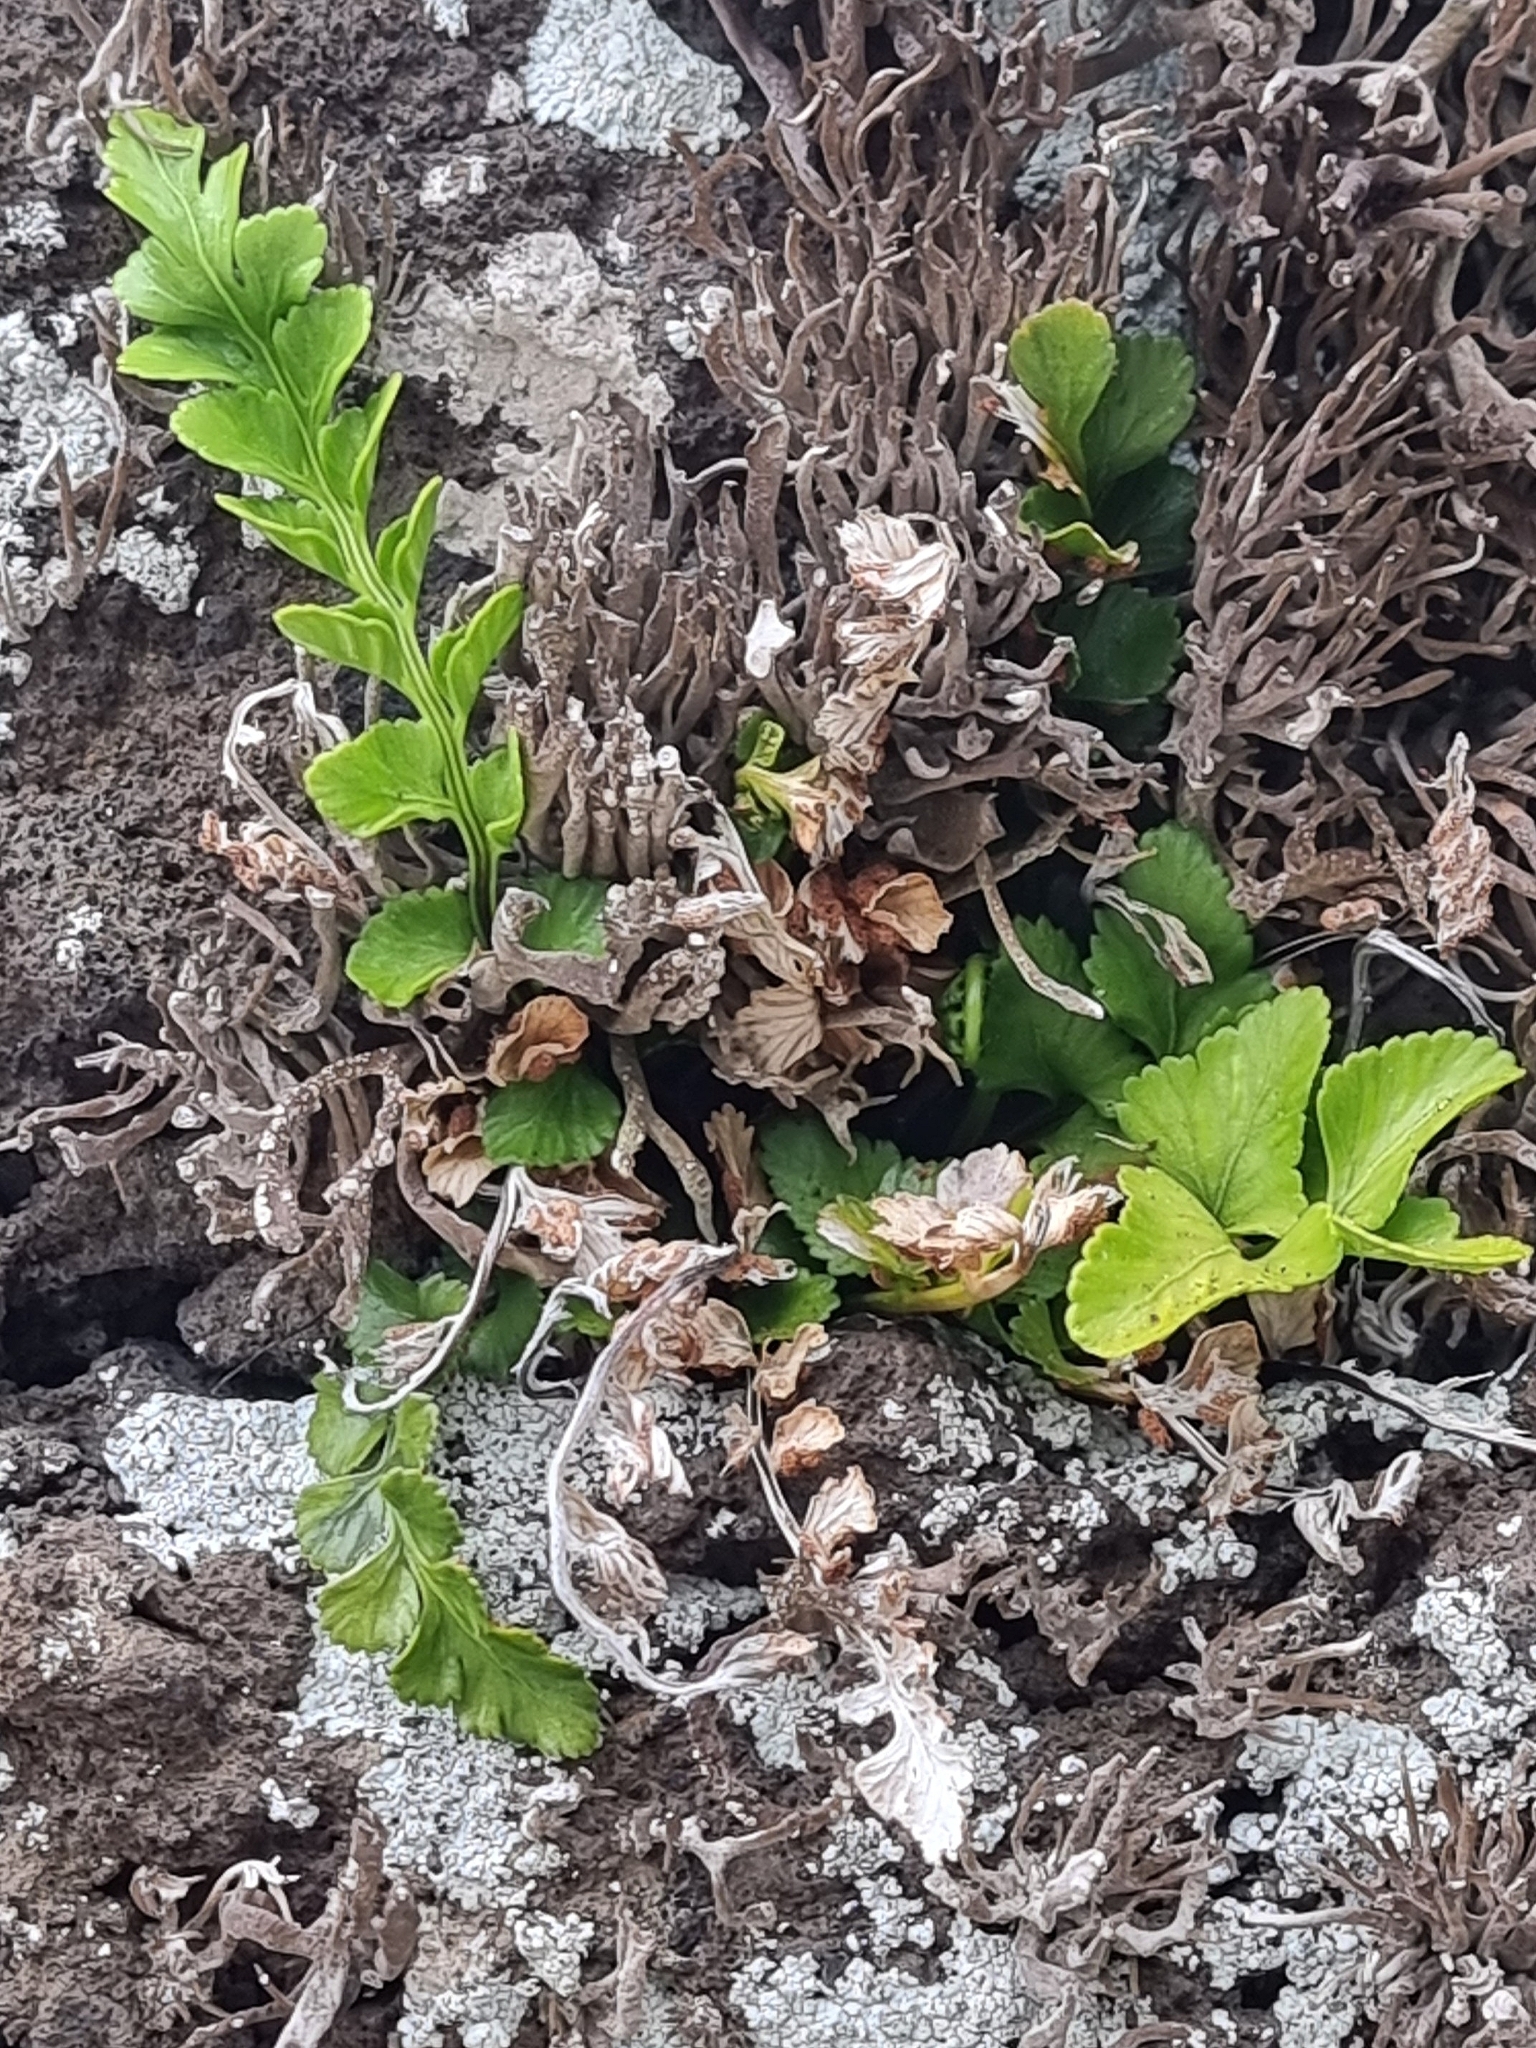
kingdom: Plantae
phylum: Tracheophyta
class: Polypodiopsida
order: Polypodiales
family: Aspleniaceae
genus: Asplenium
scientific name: Asplenium marinum
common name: Sea spleenwort
